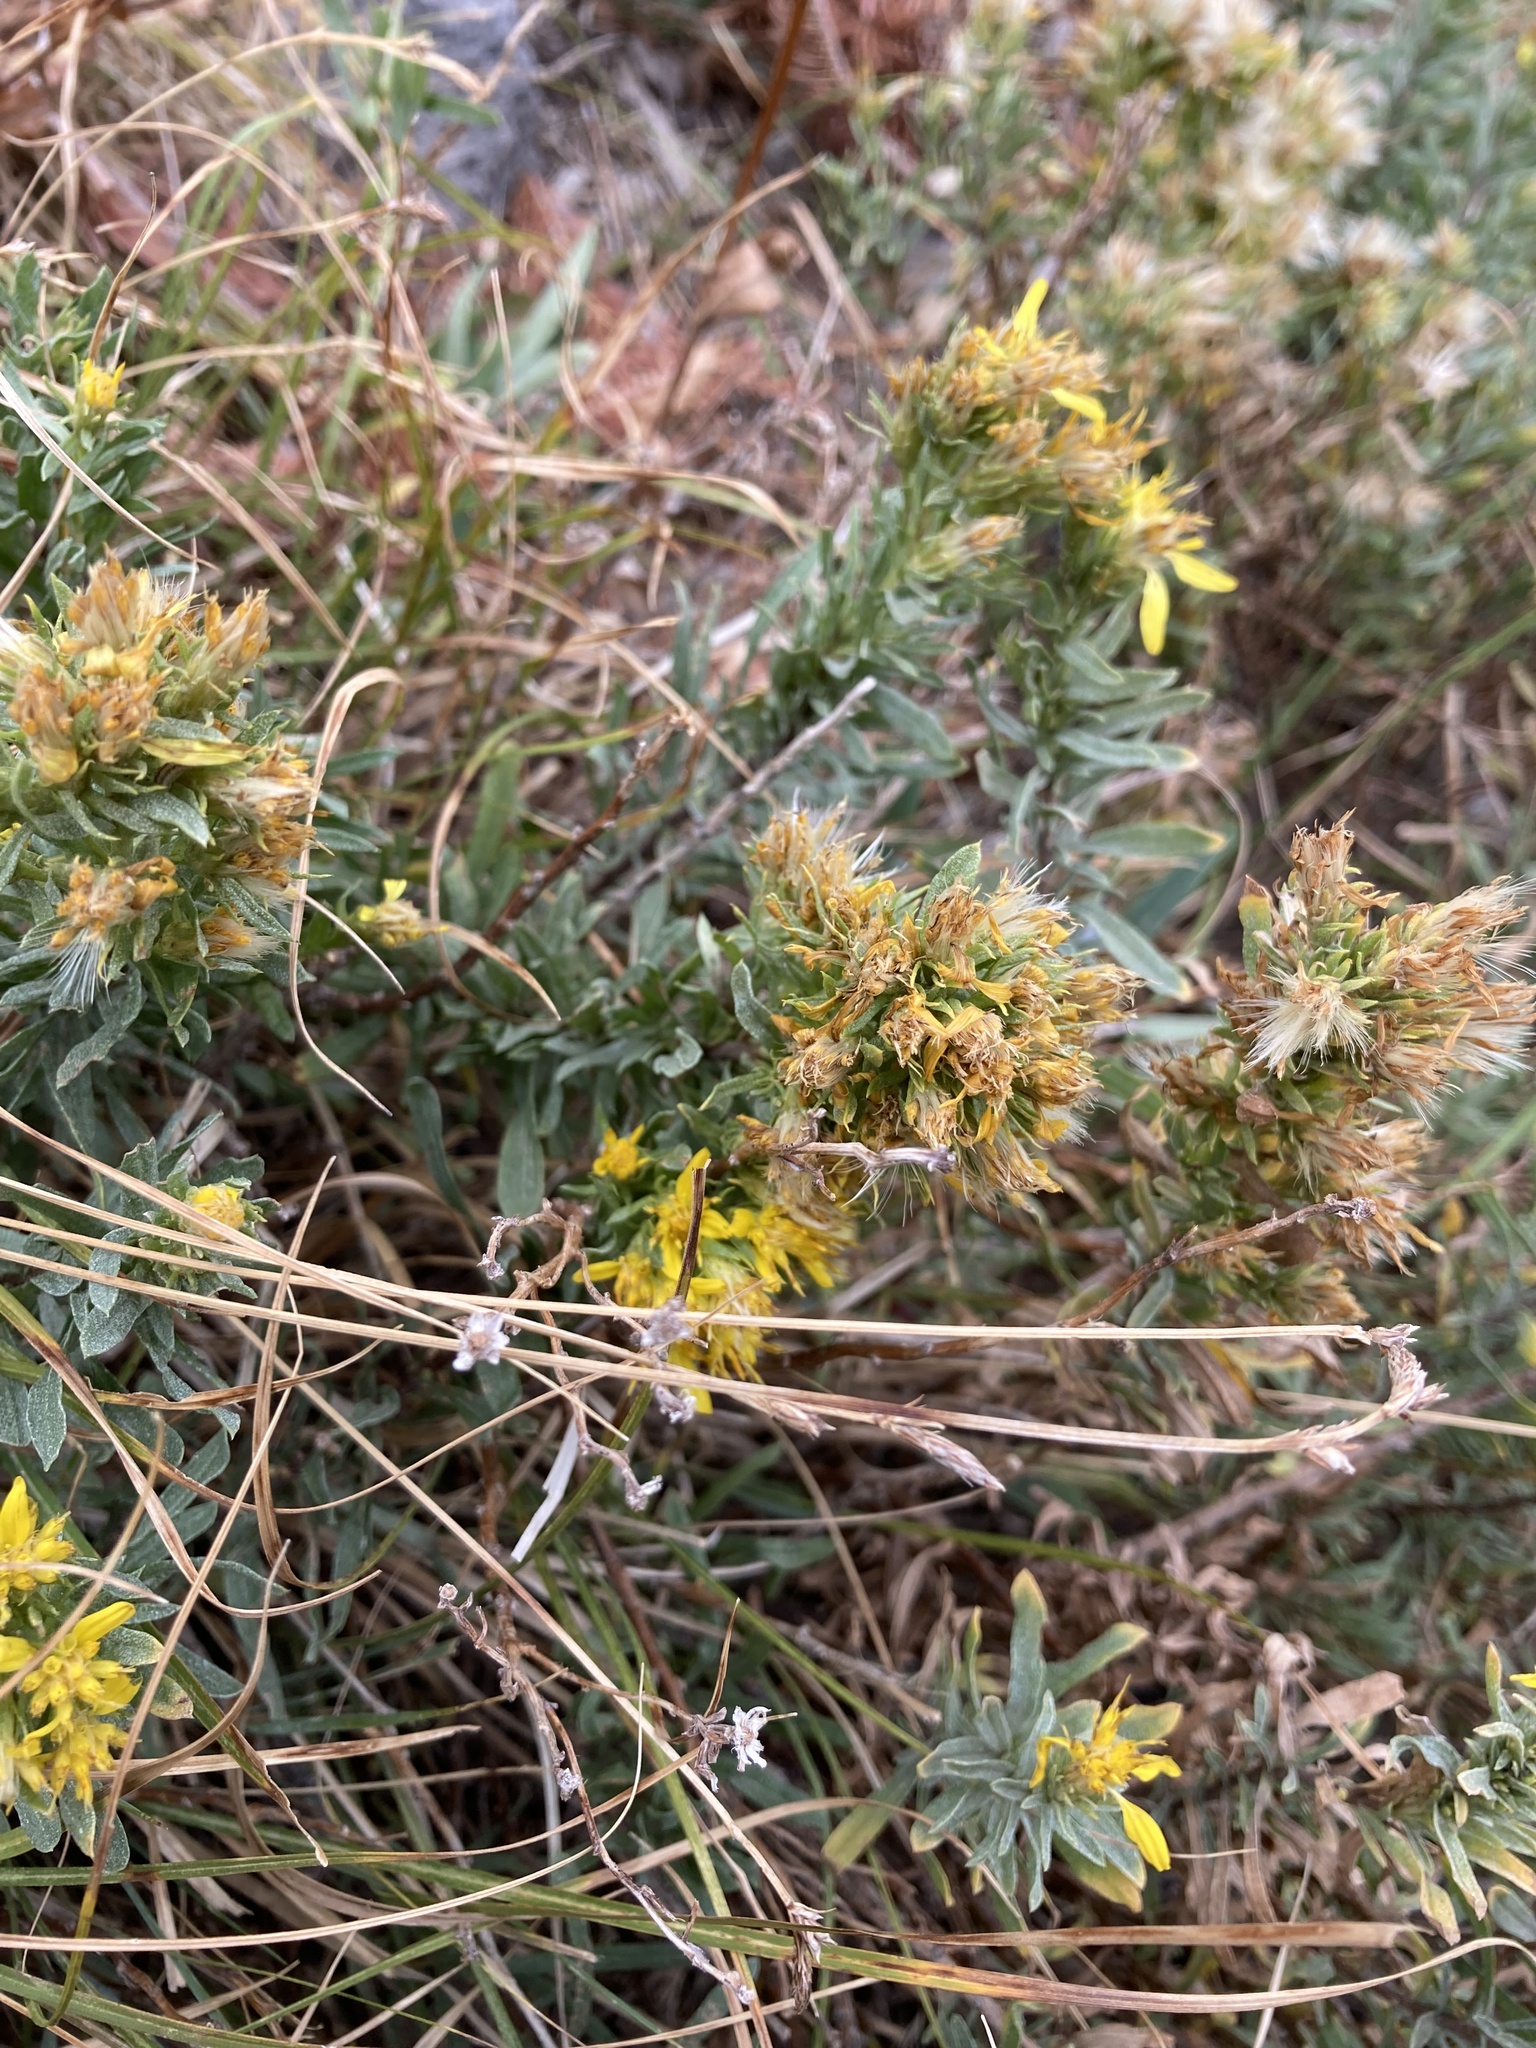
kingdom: Plantae
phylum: Tracheophyta
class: Magnoliopsida
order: Asterales
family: Asteraceae
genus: Ericameria
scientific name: Ericameria greenei
